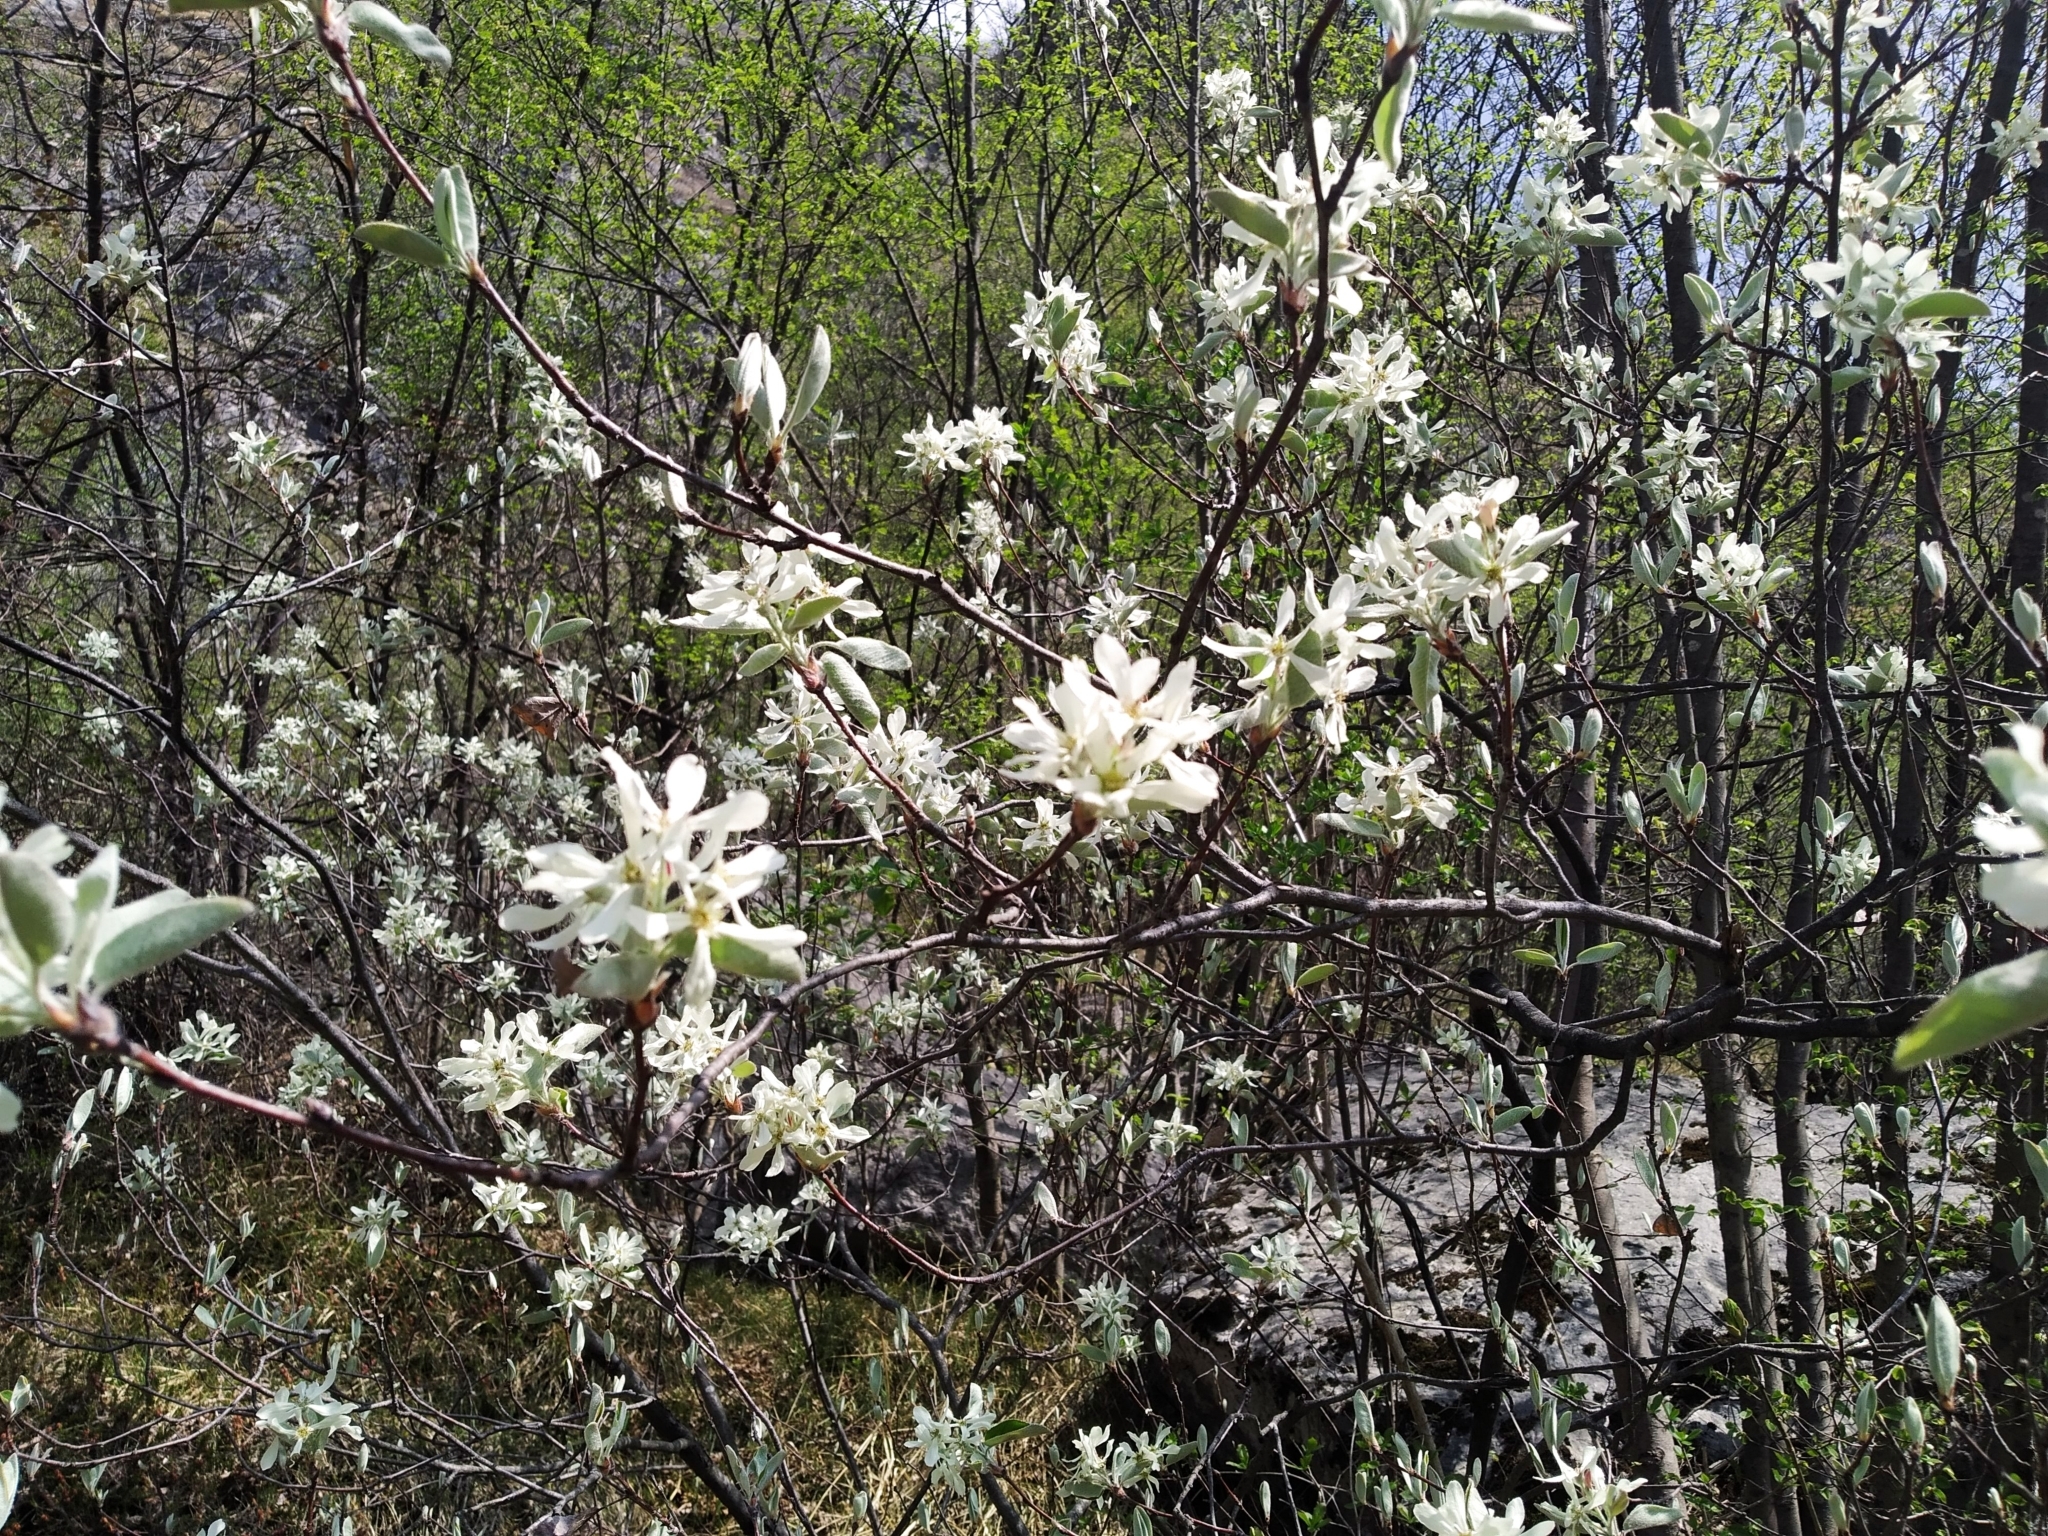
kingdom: Plantae
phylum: Tracheophyta
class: Magnoliopsida
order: Rosales
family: Rosaceae
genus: Amelanchier
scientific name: Amelanchier ovalis
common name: Serviceberry
